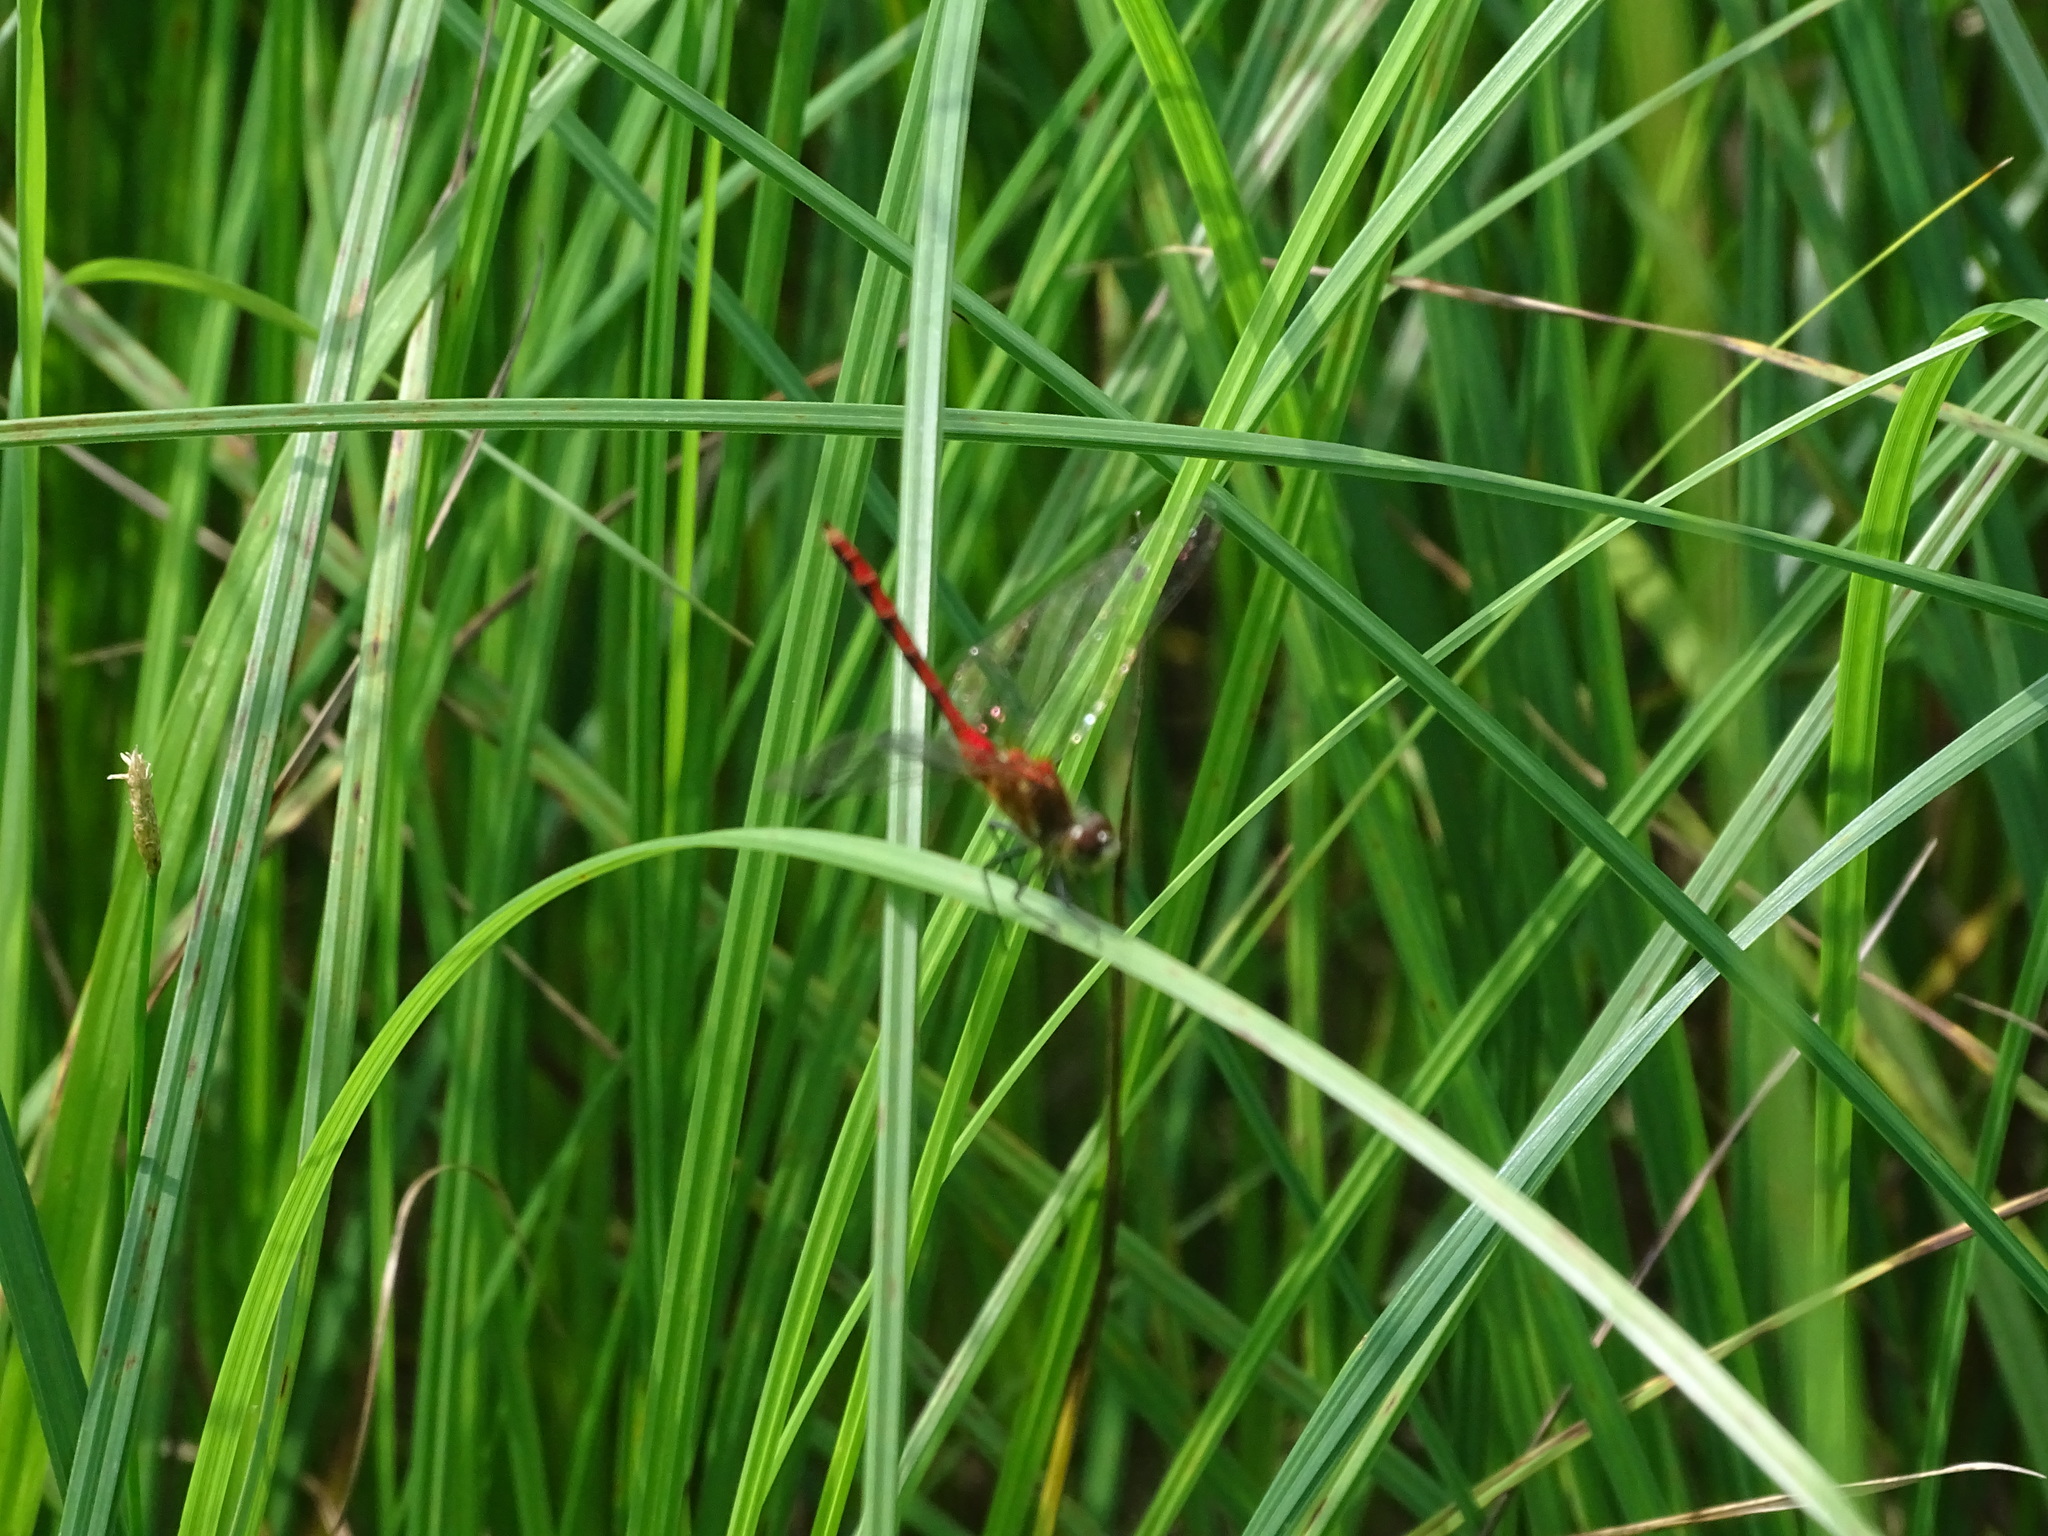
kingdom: Animalia
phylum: Arthropoda
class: Insecta
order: Odonata
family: Libellulidae
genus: Sympetrum
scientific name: Sympetrum obtrusum
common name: White-faced meadowhawk
